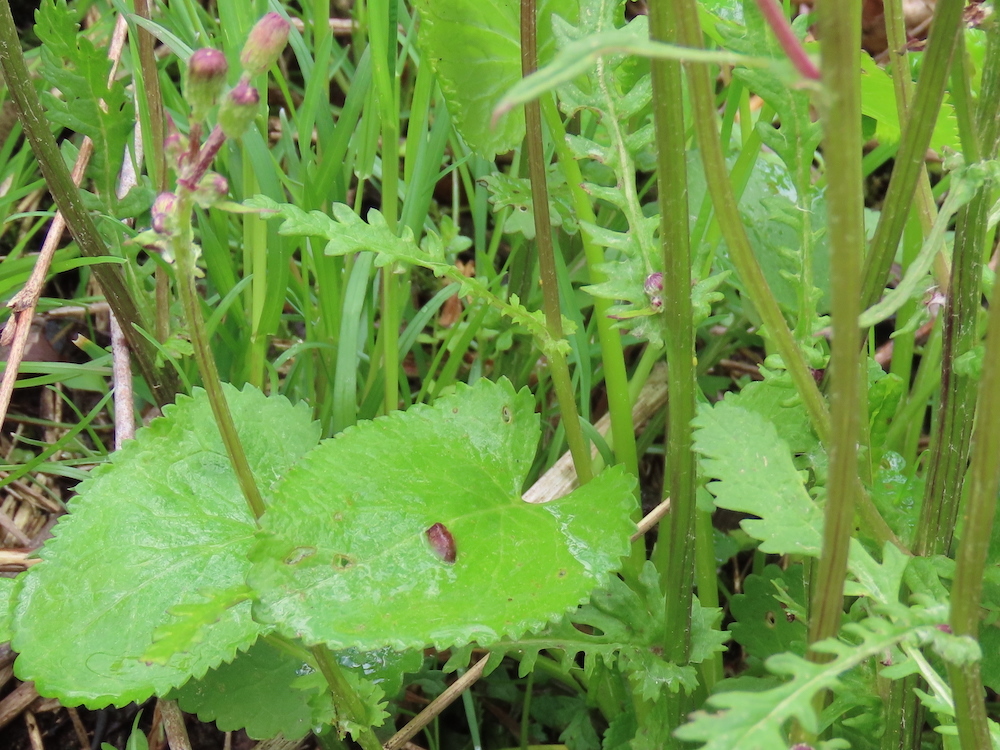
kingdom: Plantae
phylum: Tracheophyta
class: Magnoliopsida
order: Asterales
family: Asteraceae
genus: Packera
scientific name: Packera aurea
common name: Golden groundsel
